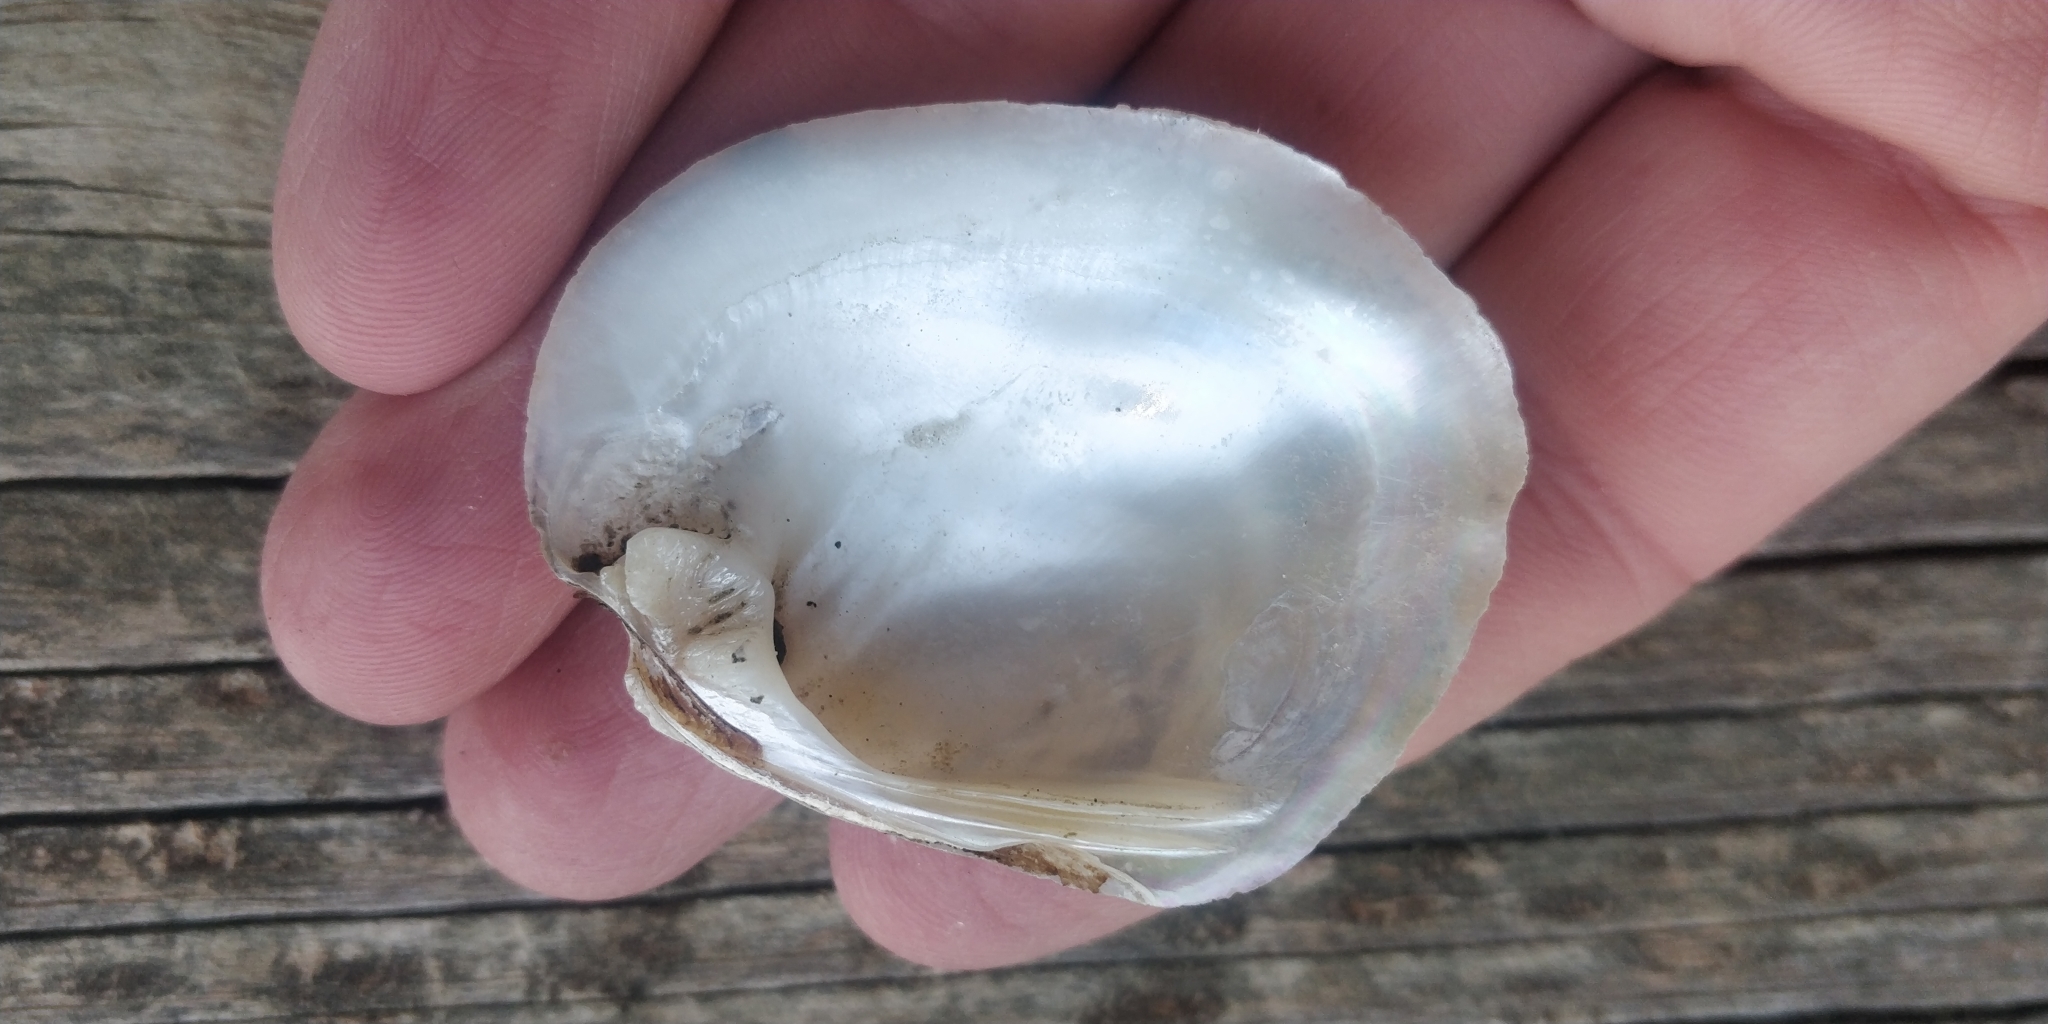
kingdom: Animalia
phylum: Mollusca
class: Bivalvia
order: Unionida
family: Unionidae
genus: Amblema
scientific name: Amblema plicata
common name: Threeridge
